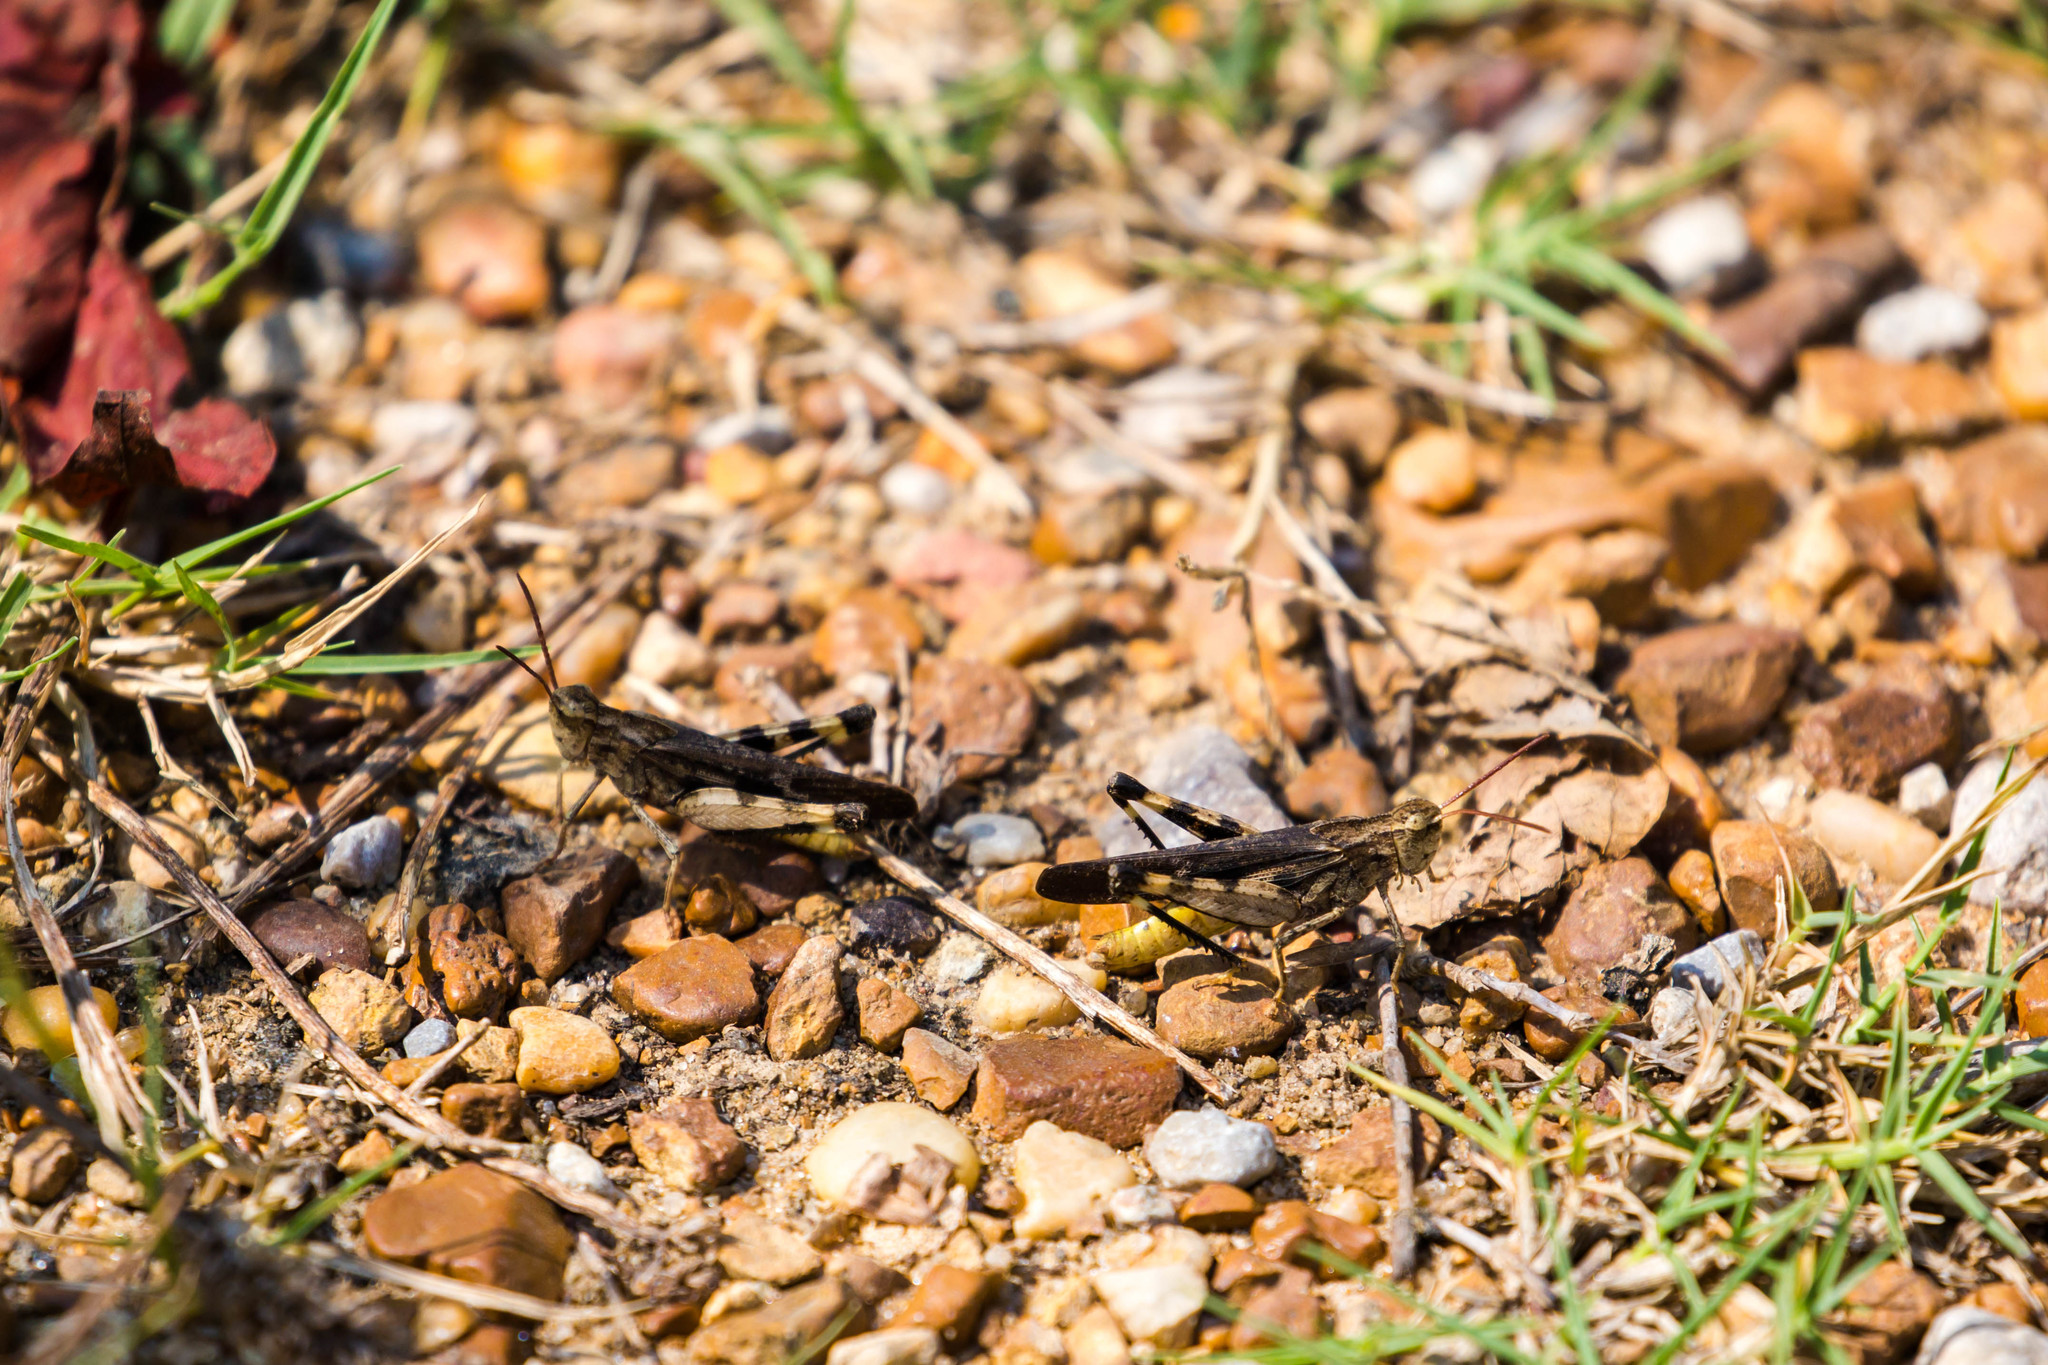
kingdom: Animalia
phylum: Arthropoda
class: Insecta
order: Orthoptera
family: Acrididae
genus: Chortophaga
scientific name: Chortophaga viridifasciata
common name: Green-striped grasshopper
